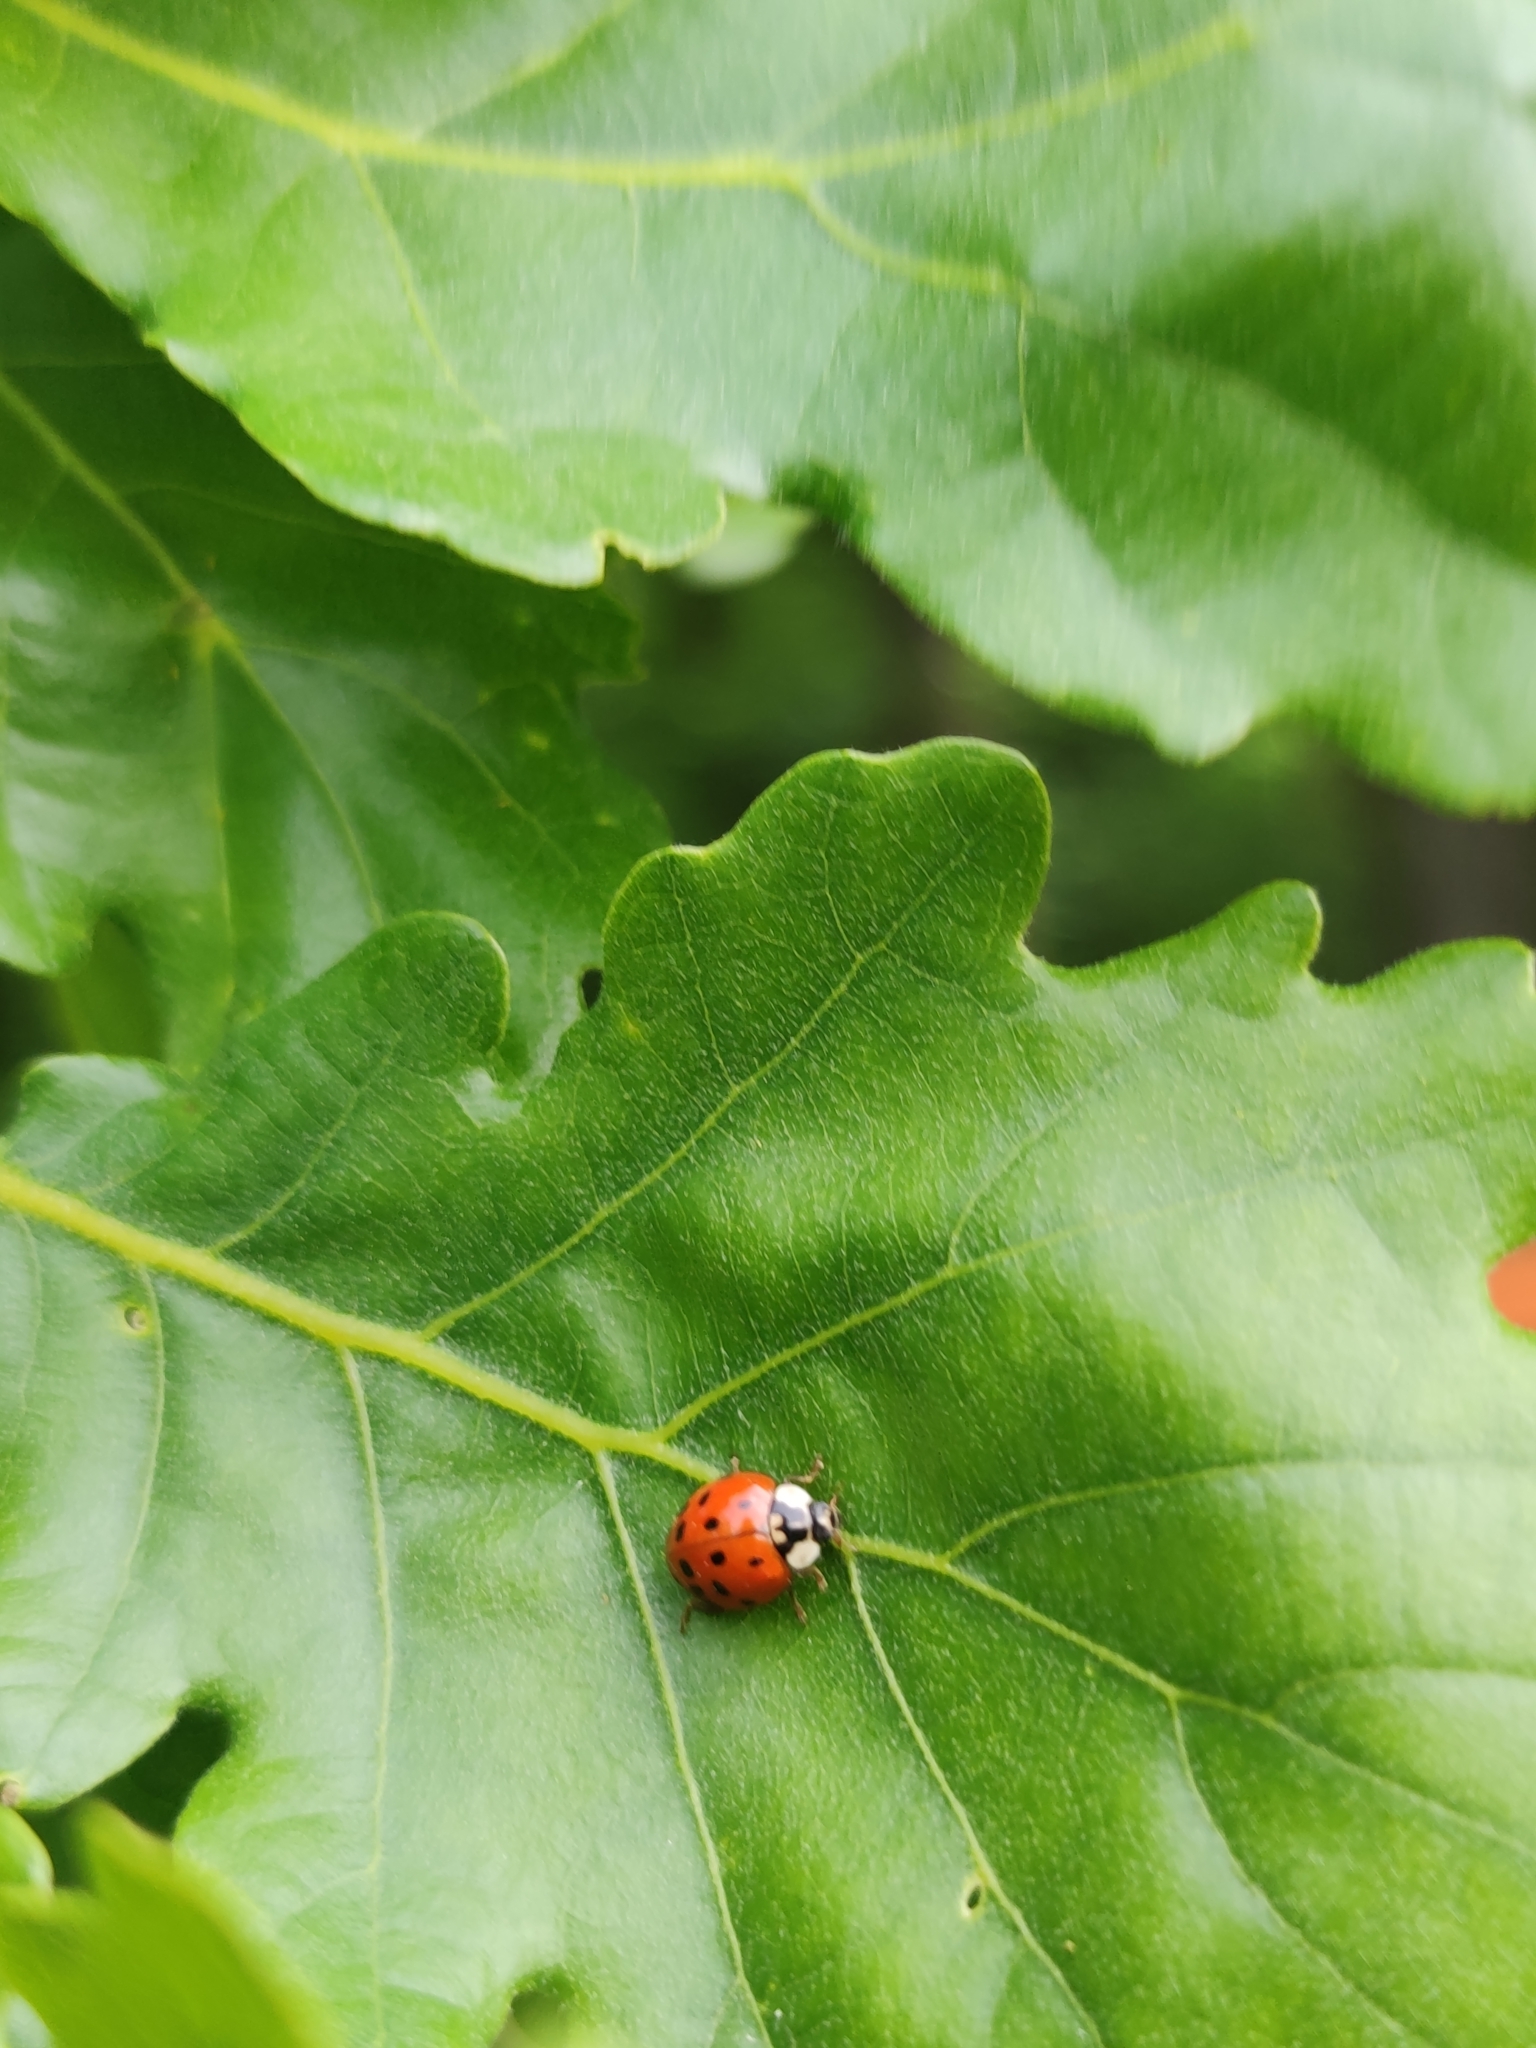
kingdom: Animalia
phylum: Arthropoda
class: Insecta
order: Coleoptera
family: Coccinellidae
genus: Harmonia
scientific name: Harmonia axyridis
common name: Harlequin ladybird
